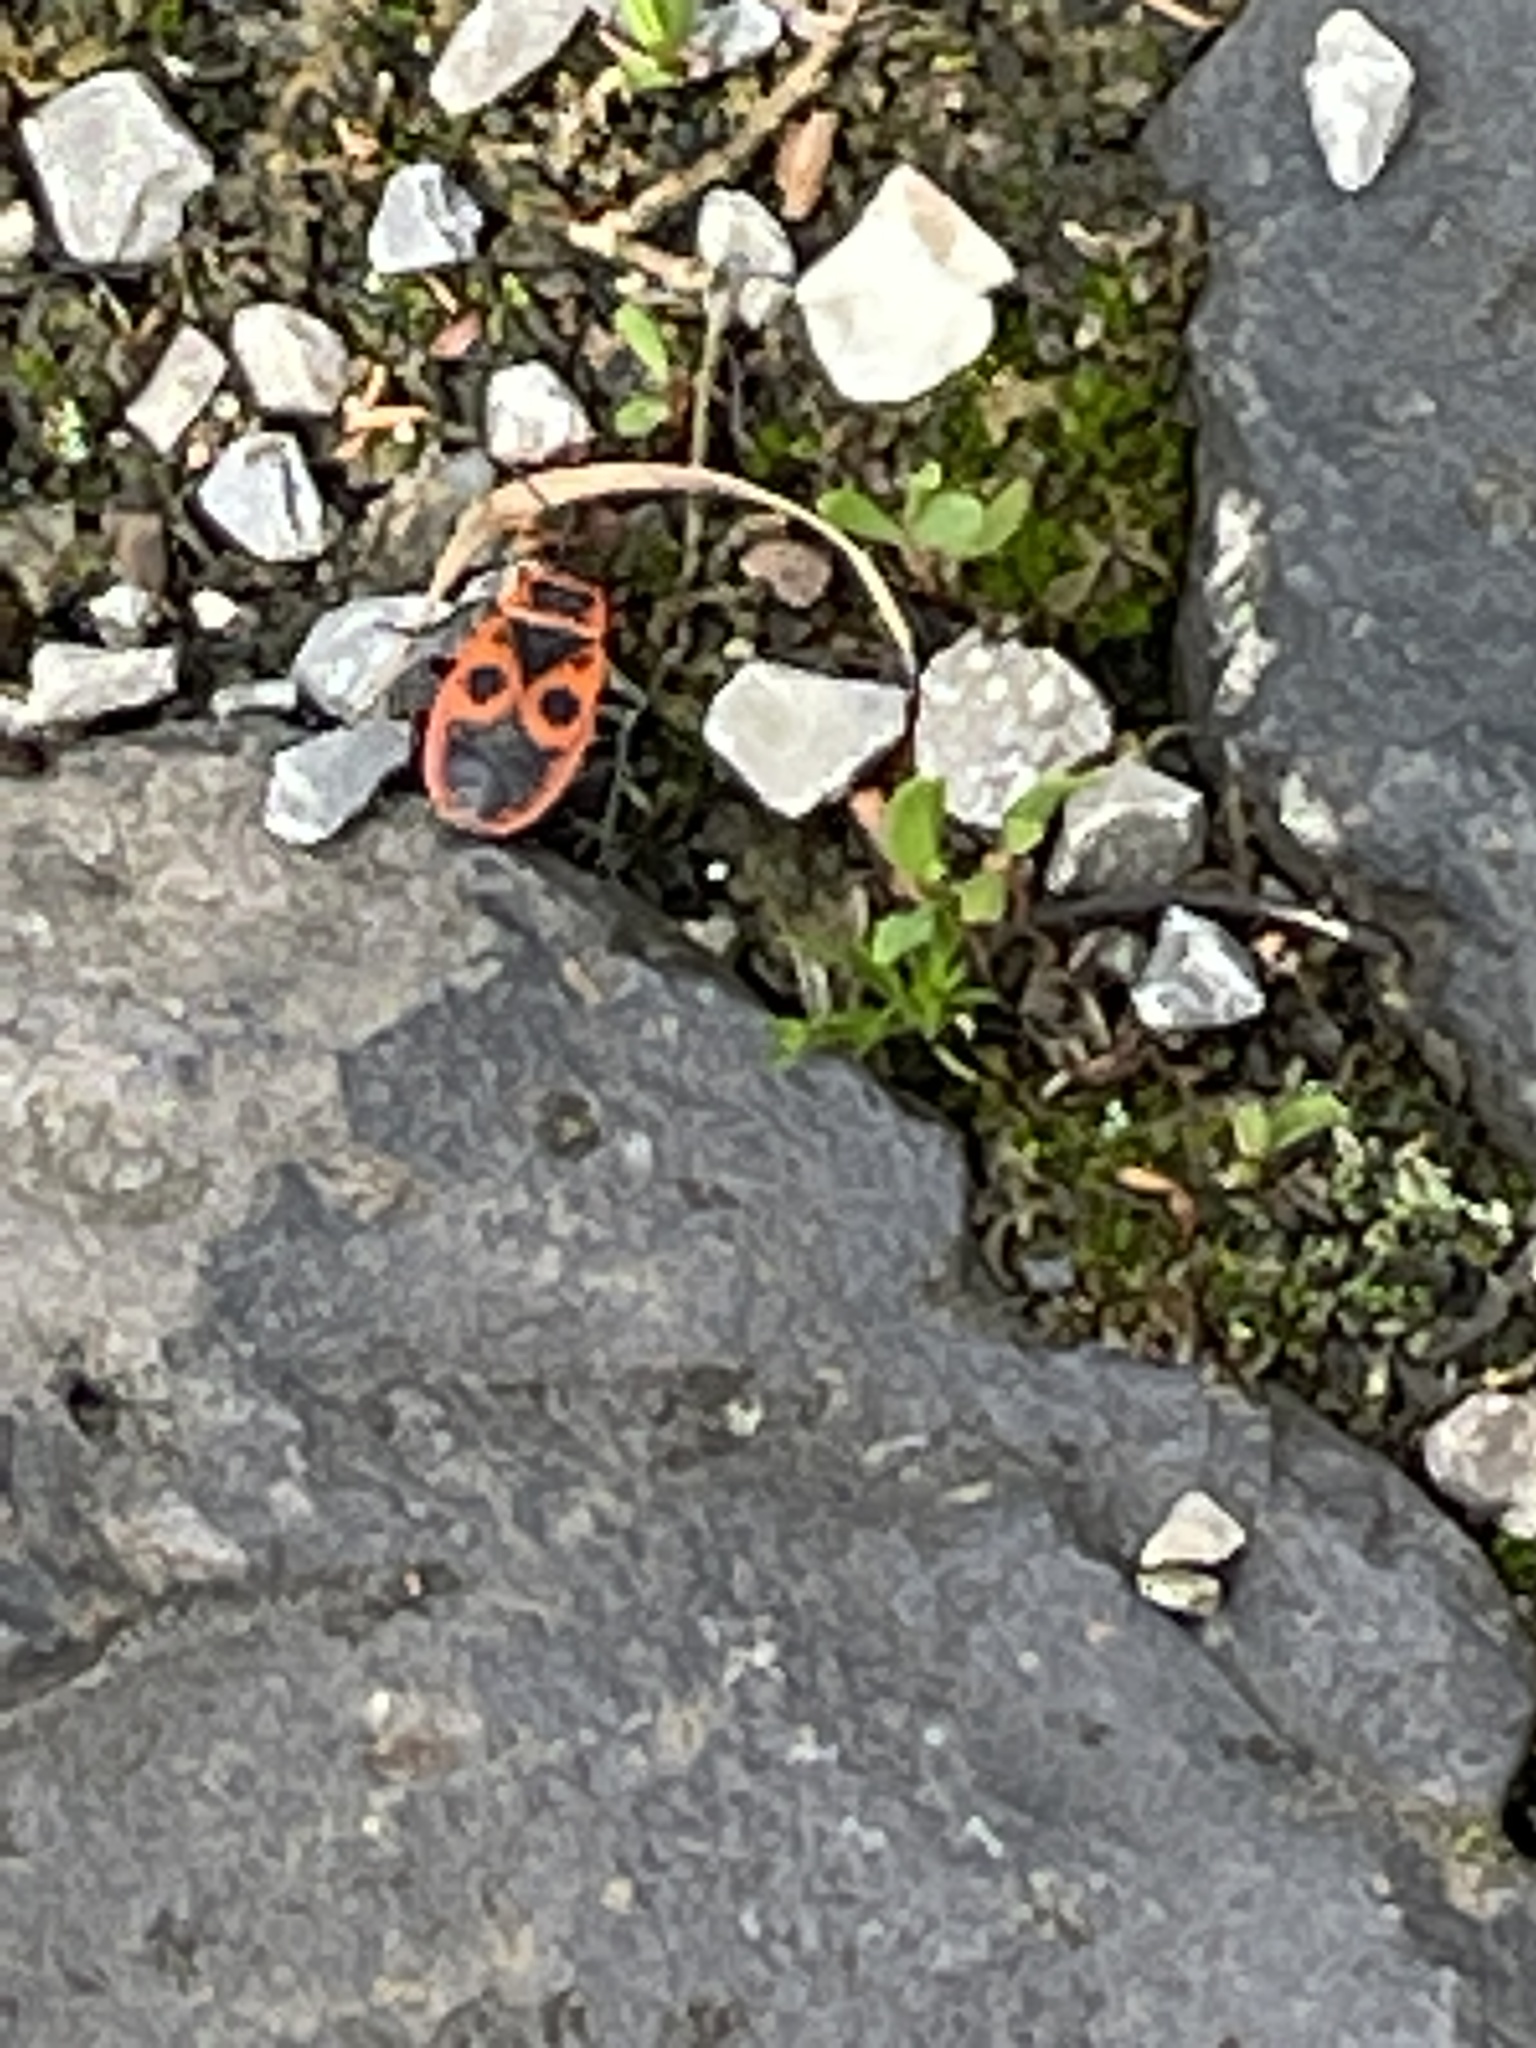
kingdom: Animalia
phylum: Arthropoda
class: Insecta
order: Hemiptera
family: Pyrrhocoridae
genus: Pyrrhocoris
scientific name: Pyrrhocoris apterus
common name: Firebug
